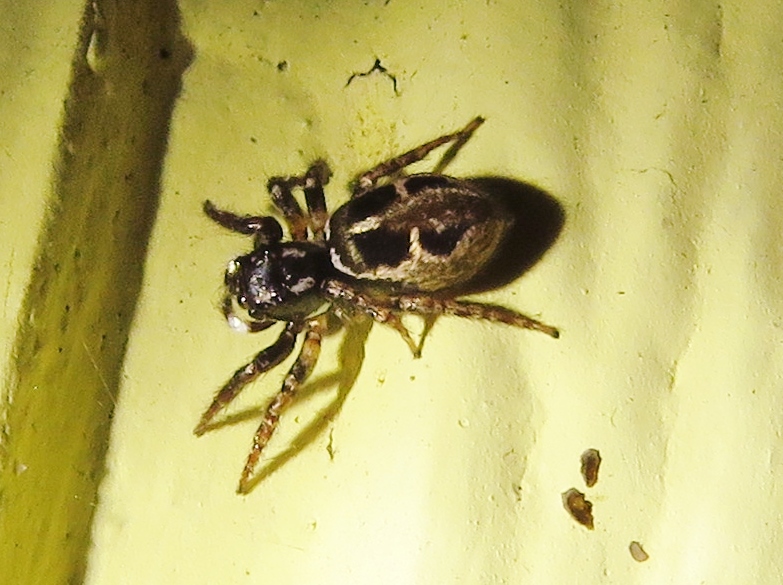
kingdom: Animalia
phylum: Arthropoda
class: Arachnida
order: Araneae
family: Salticidae
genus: Anasaitis
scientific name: Anasaitis canosa
